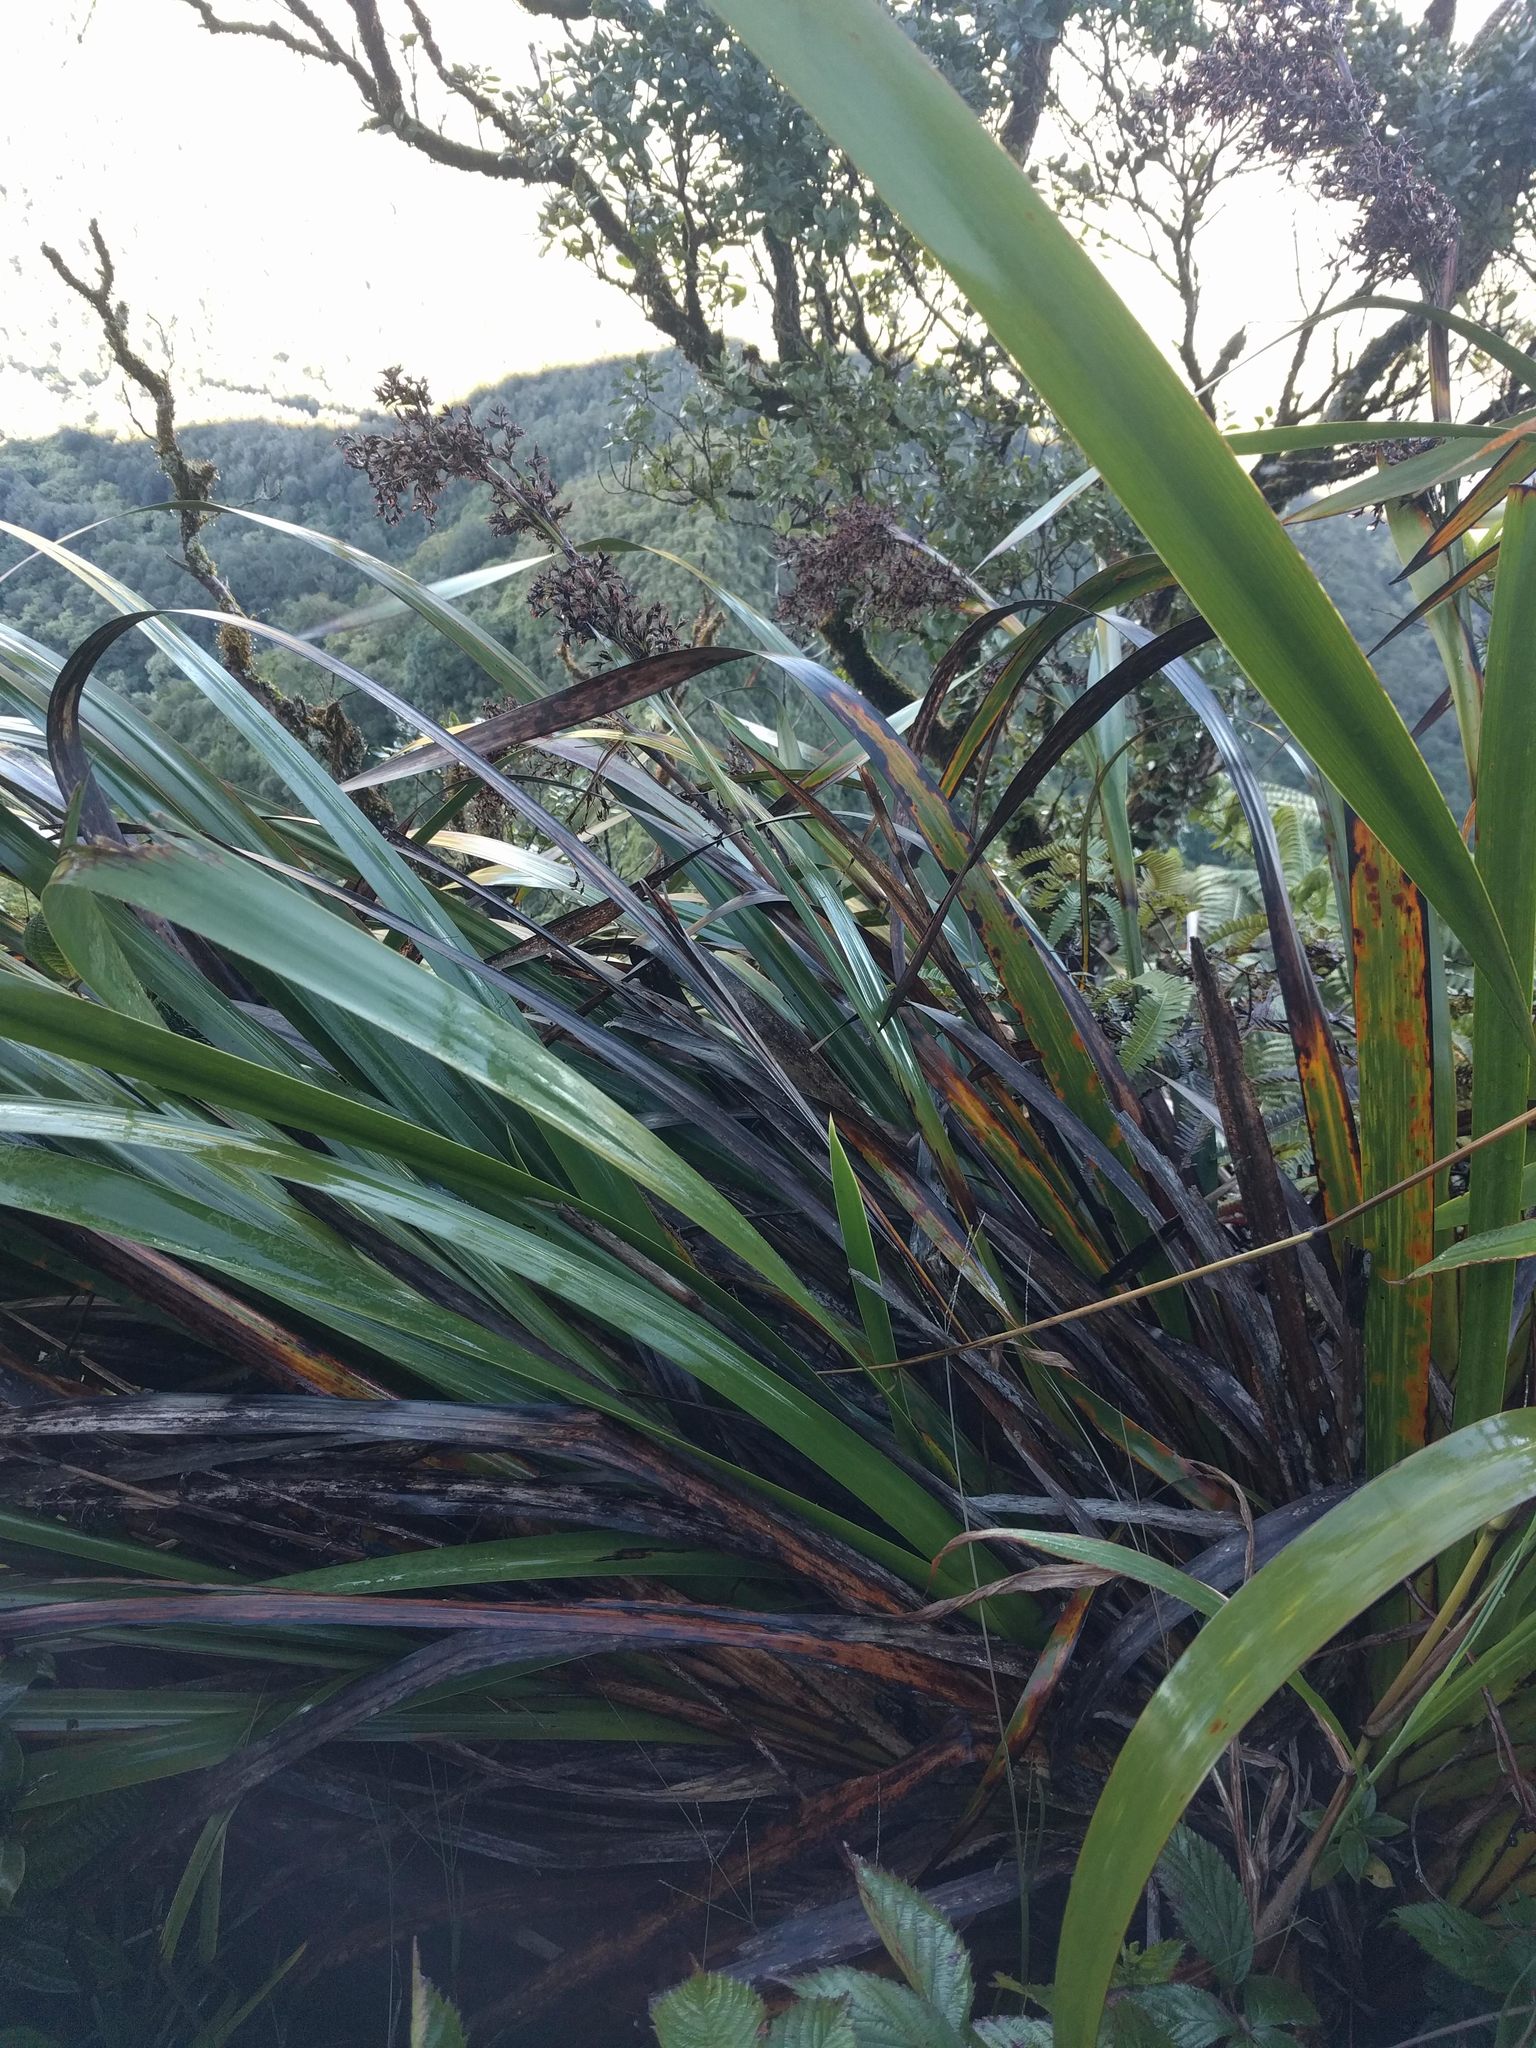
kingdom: Plantae
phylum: Tracheophyta
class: Liliopsida
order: Poales
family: Cyperaceae
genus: Machaerina
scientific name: Machaerina angustifolia
